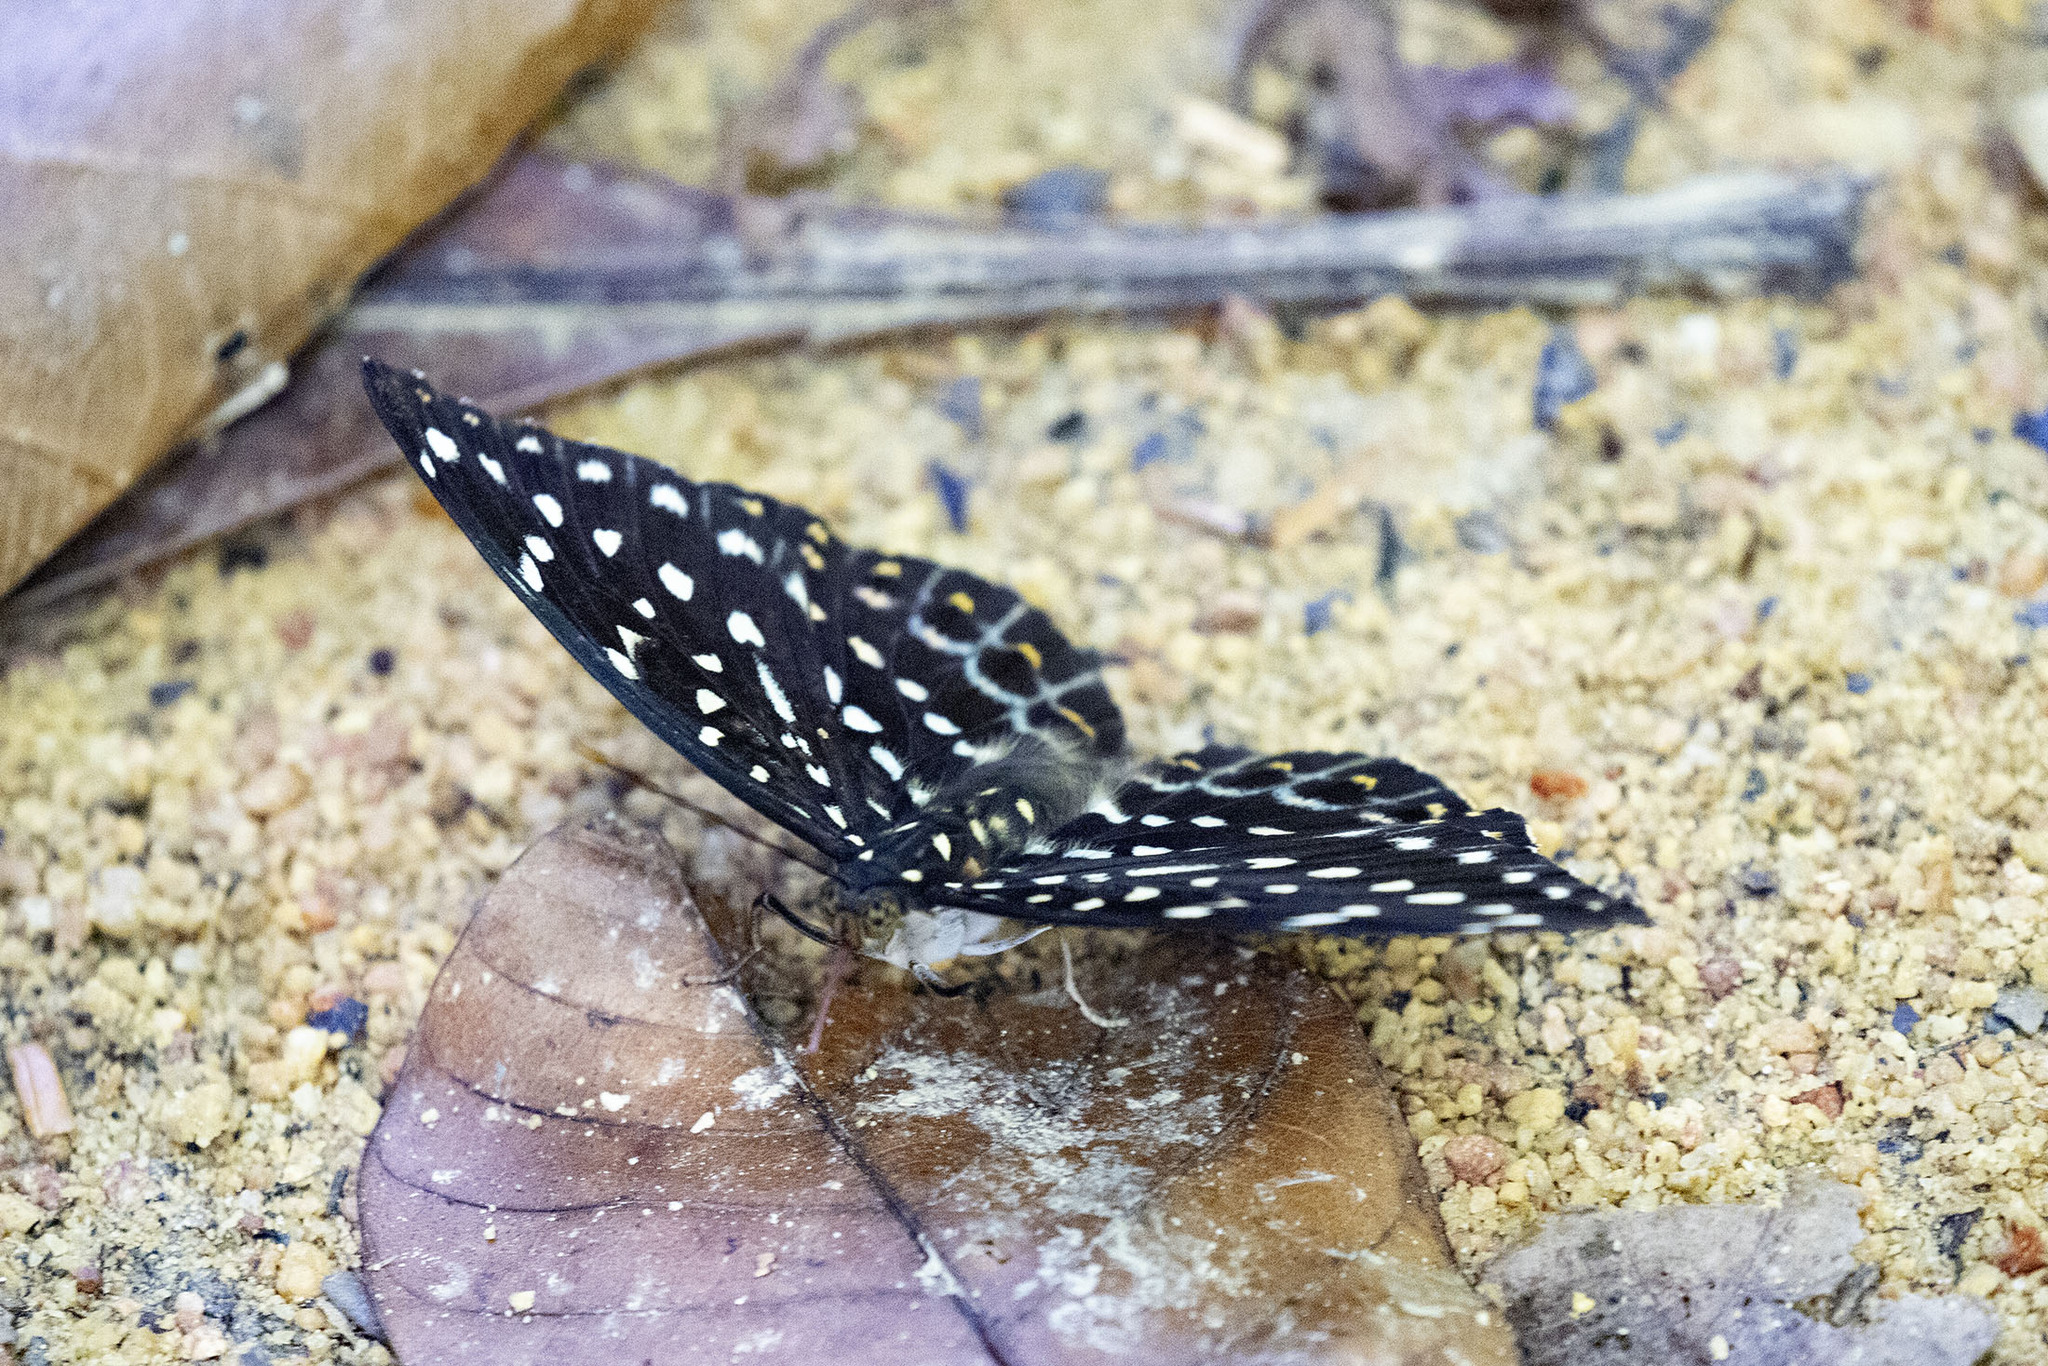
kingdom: Animalia
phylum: Arthropoda
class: Insecta
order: Lepidoptera
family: Nymphalidae
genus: Lexias
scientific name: Lexias pardalis
